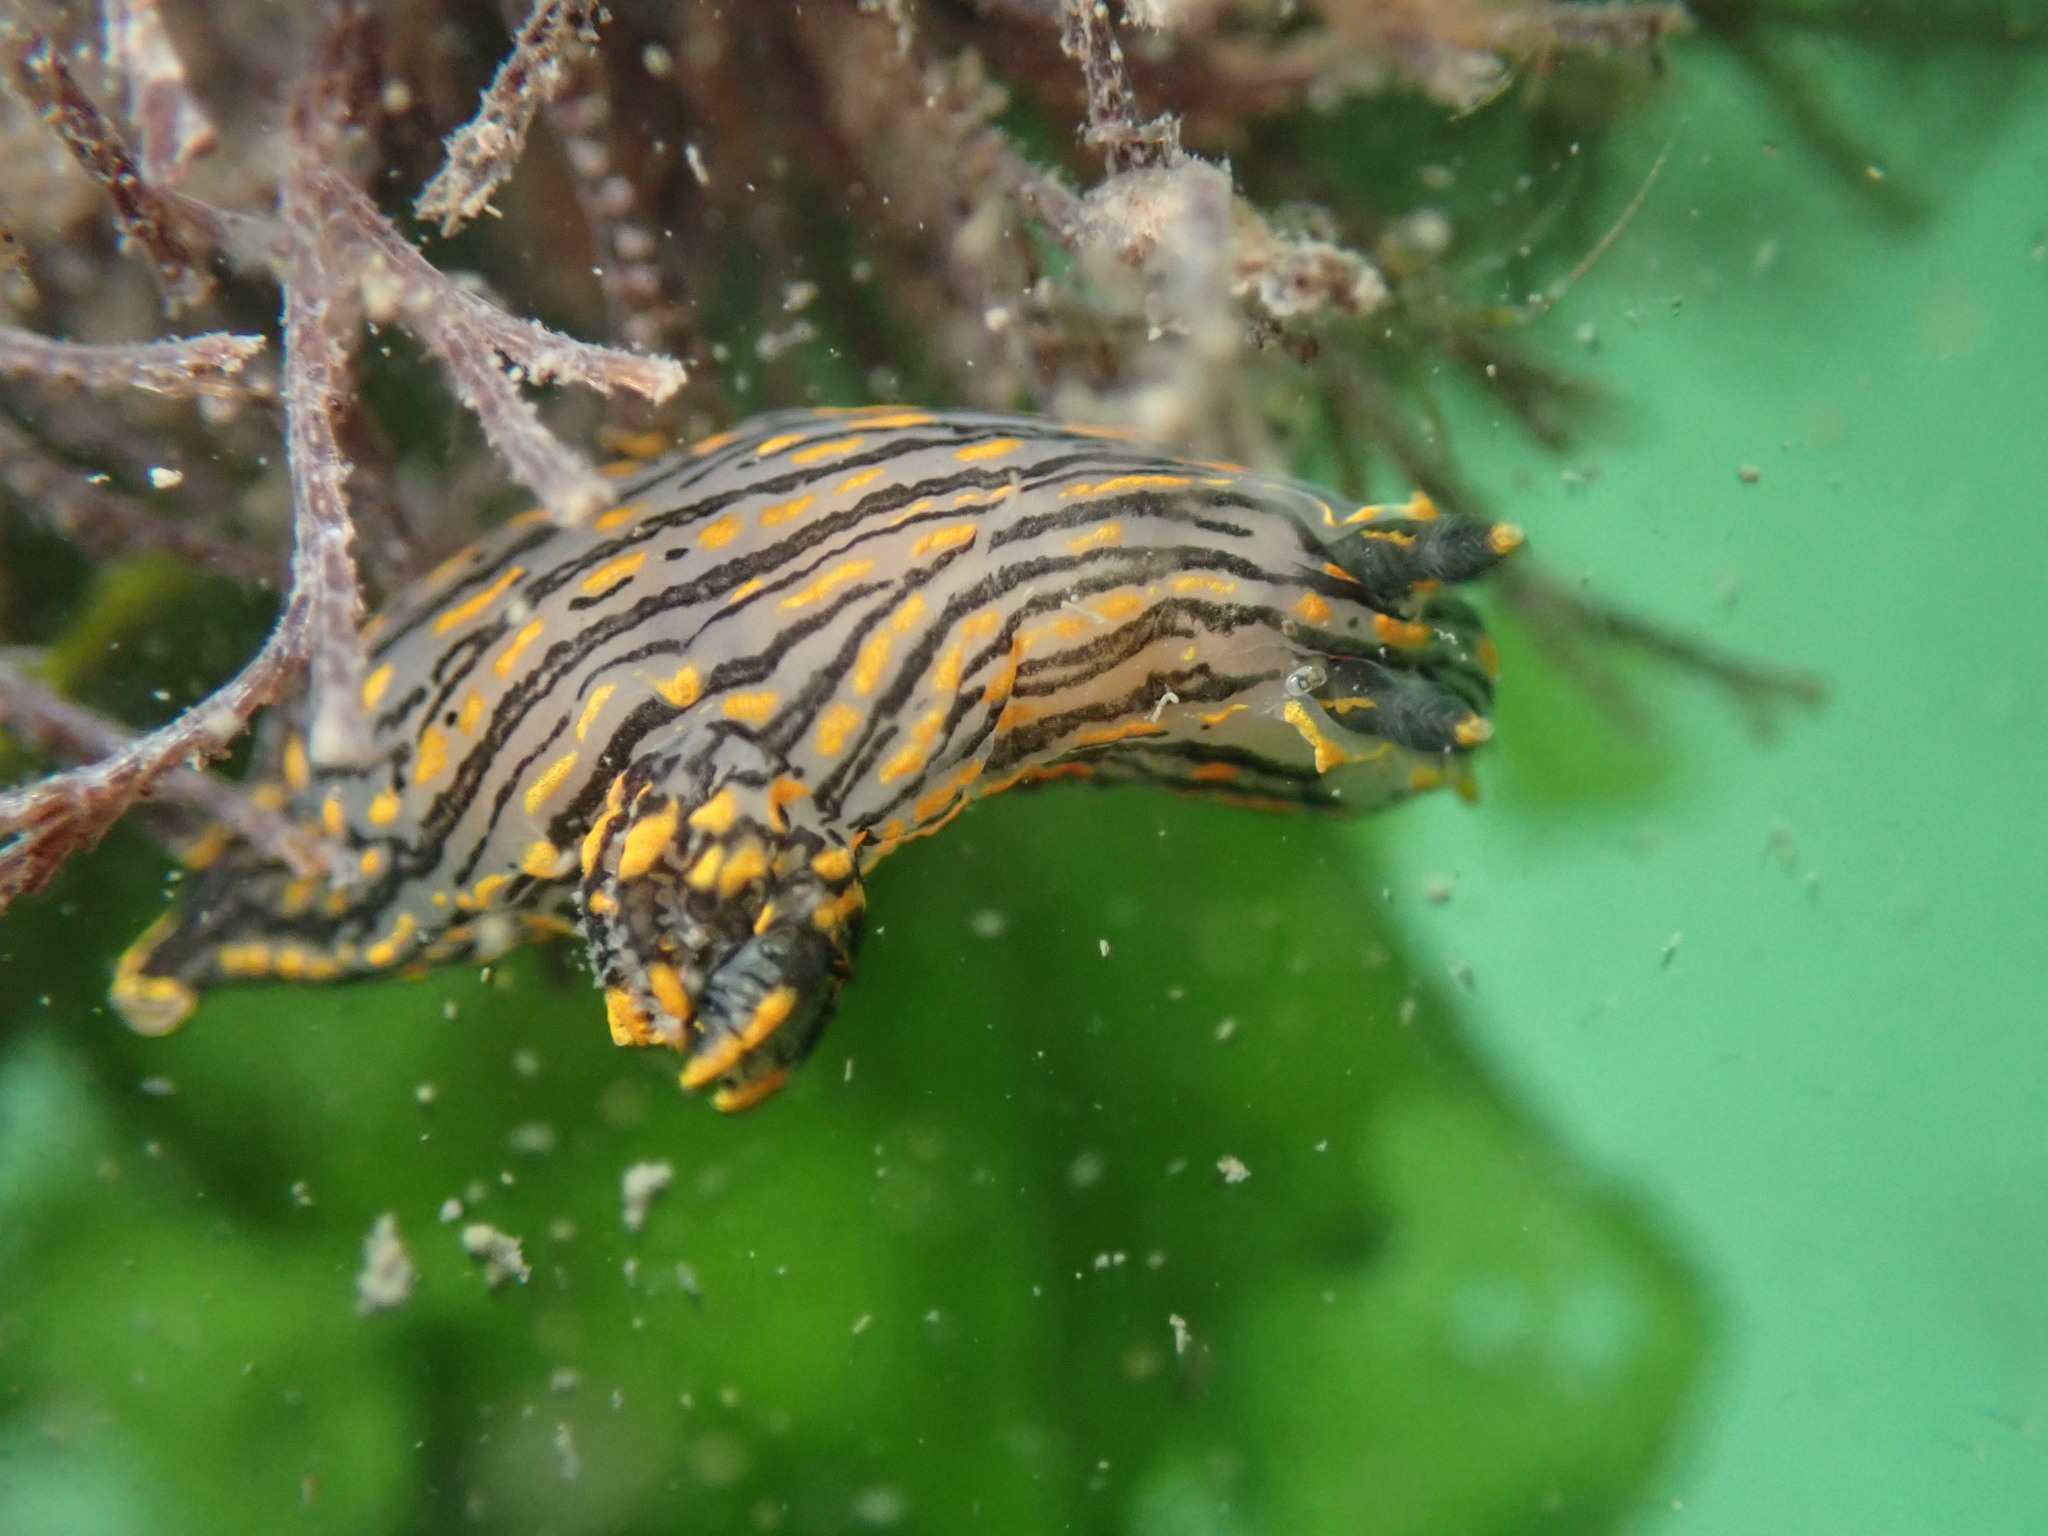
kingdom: Animalia
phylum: Mollusca
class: Gastropoda
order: Nudibranchia
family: Polyceridae
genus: Polycera
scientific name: Polycera atra
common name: Orange-spike polycera
